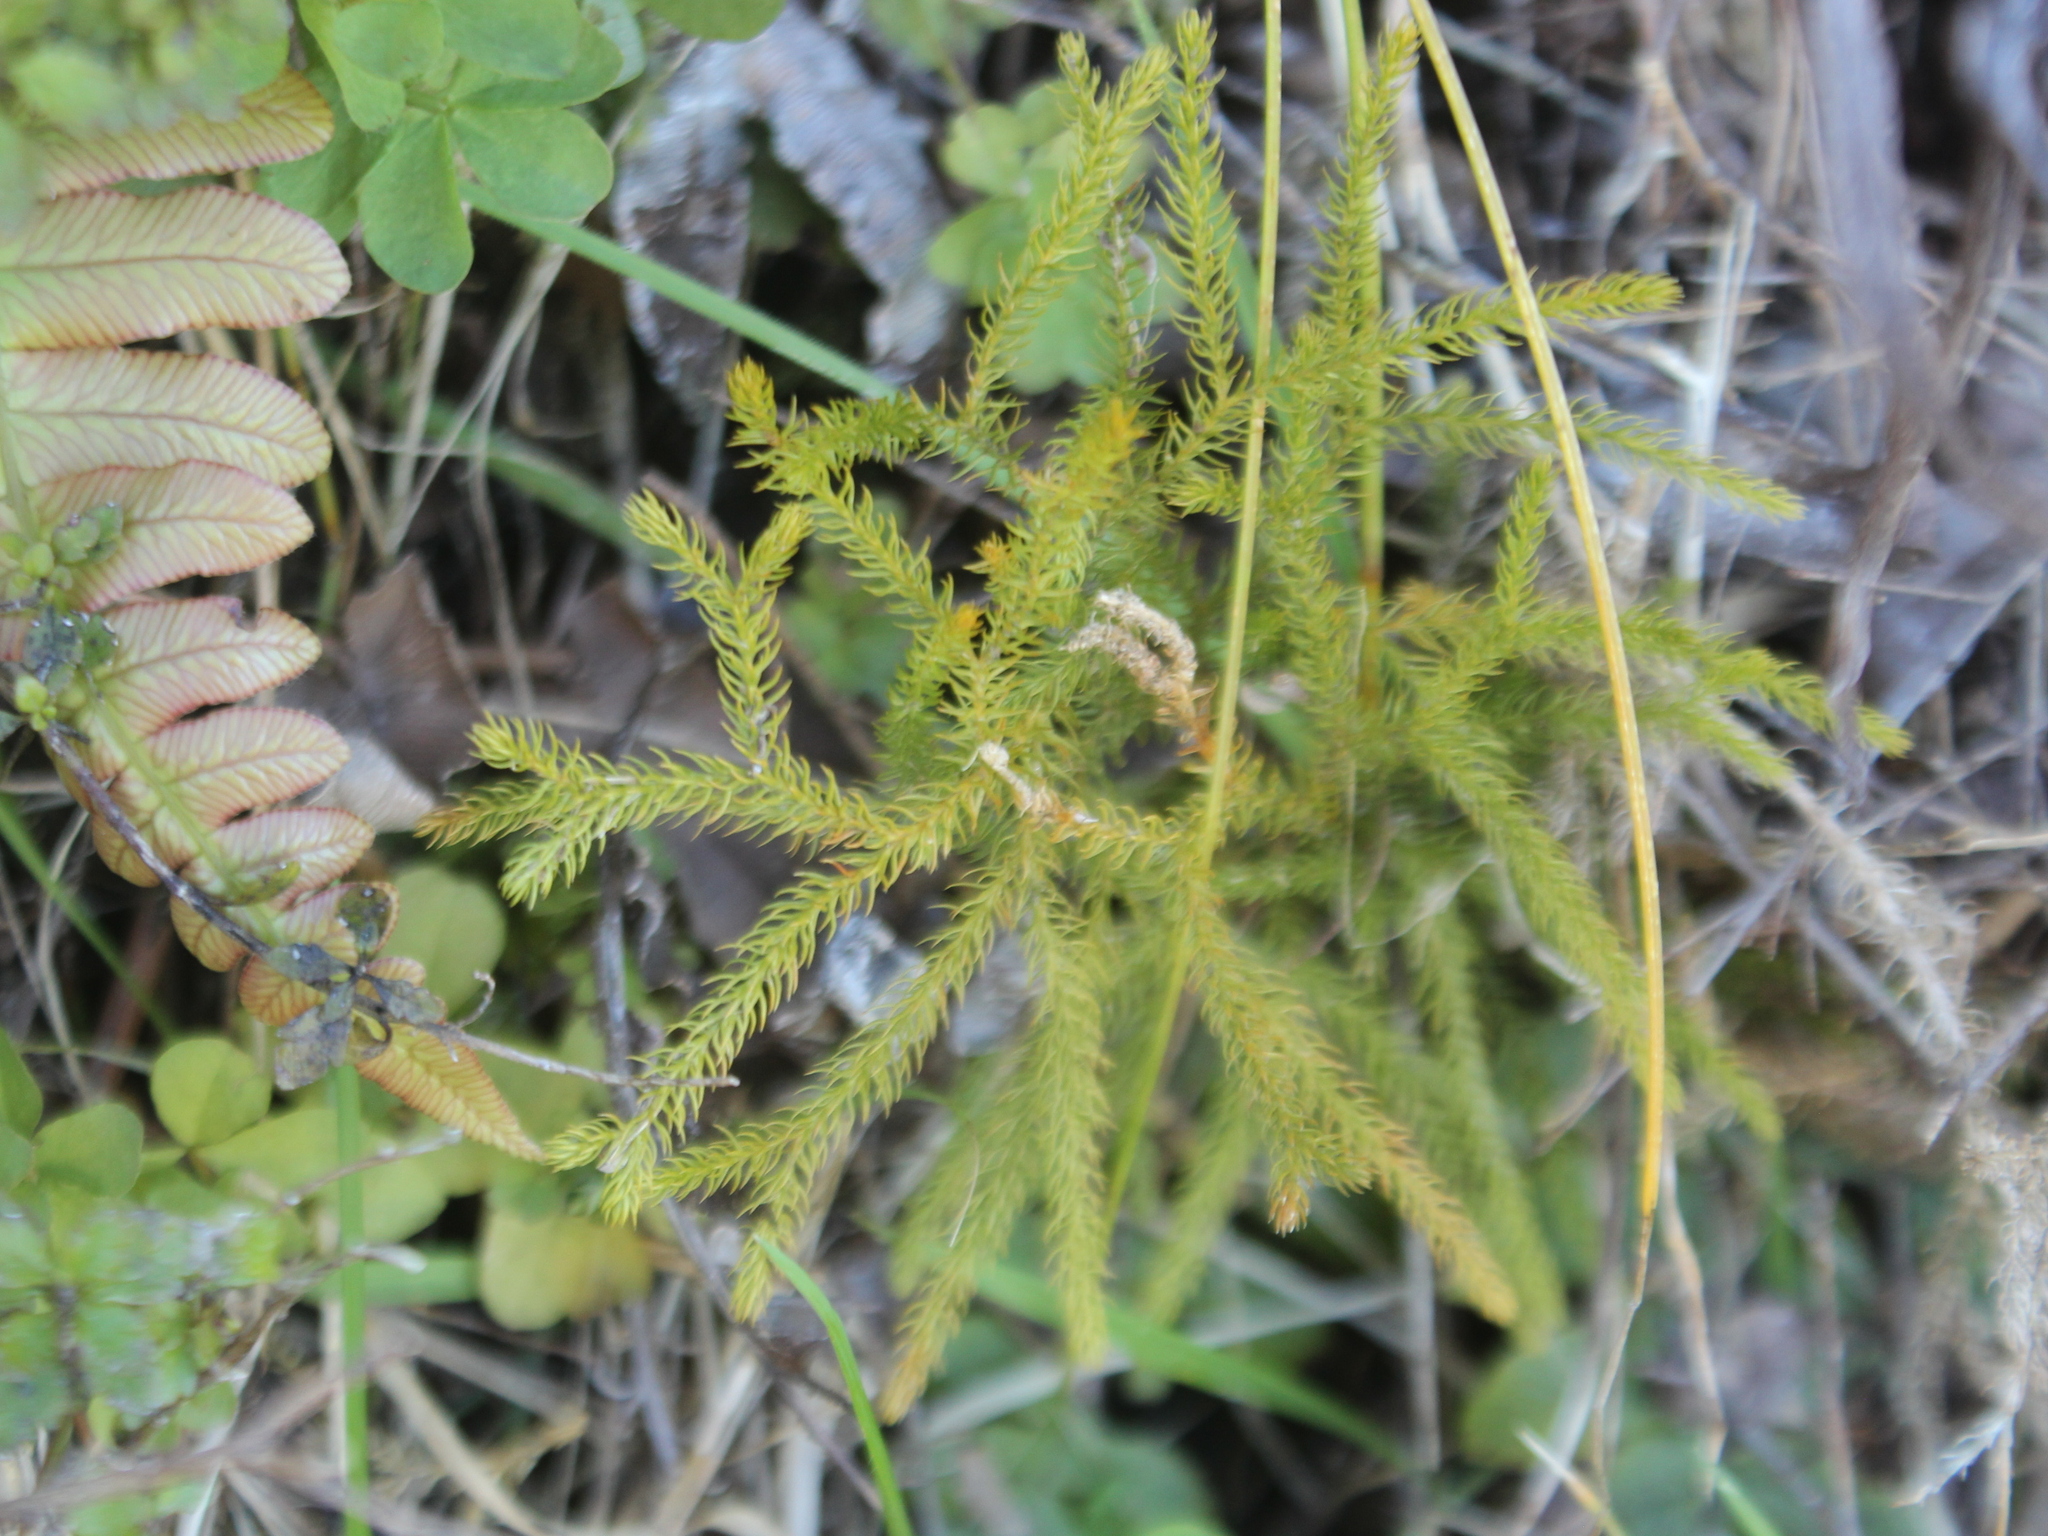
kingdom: Plantae
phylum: Tracheophyta
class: Lycopodiopsida
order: Lycopodiales
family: Lycopodiaceae
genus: Austrolycopodium
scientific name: Austrolycopodium fastigiatum
